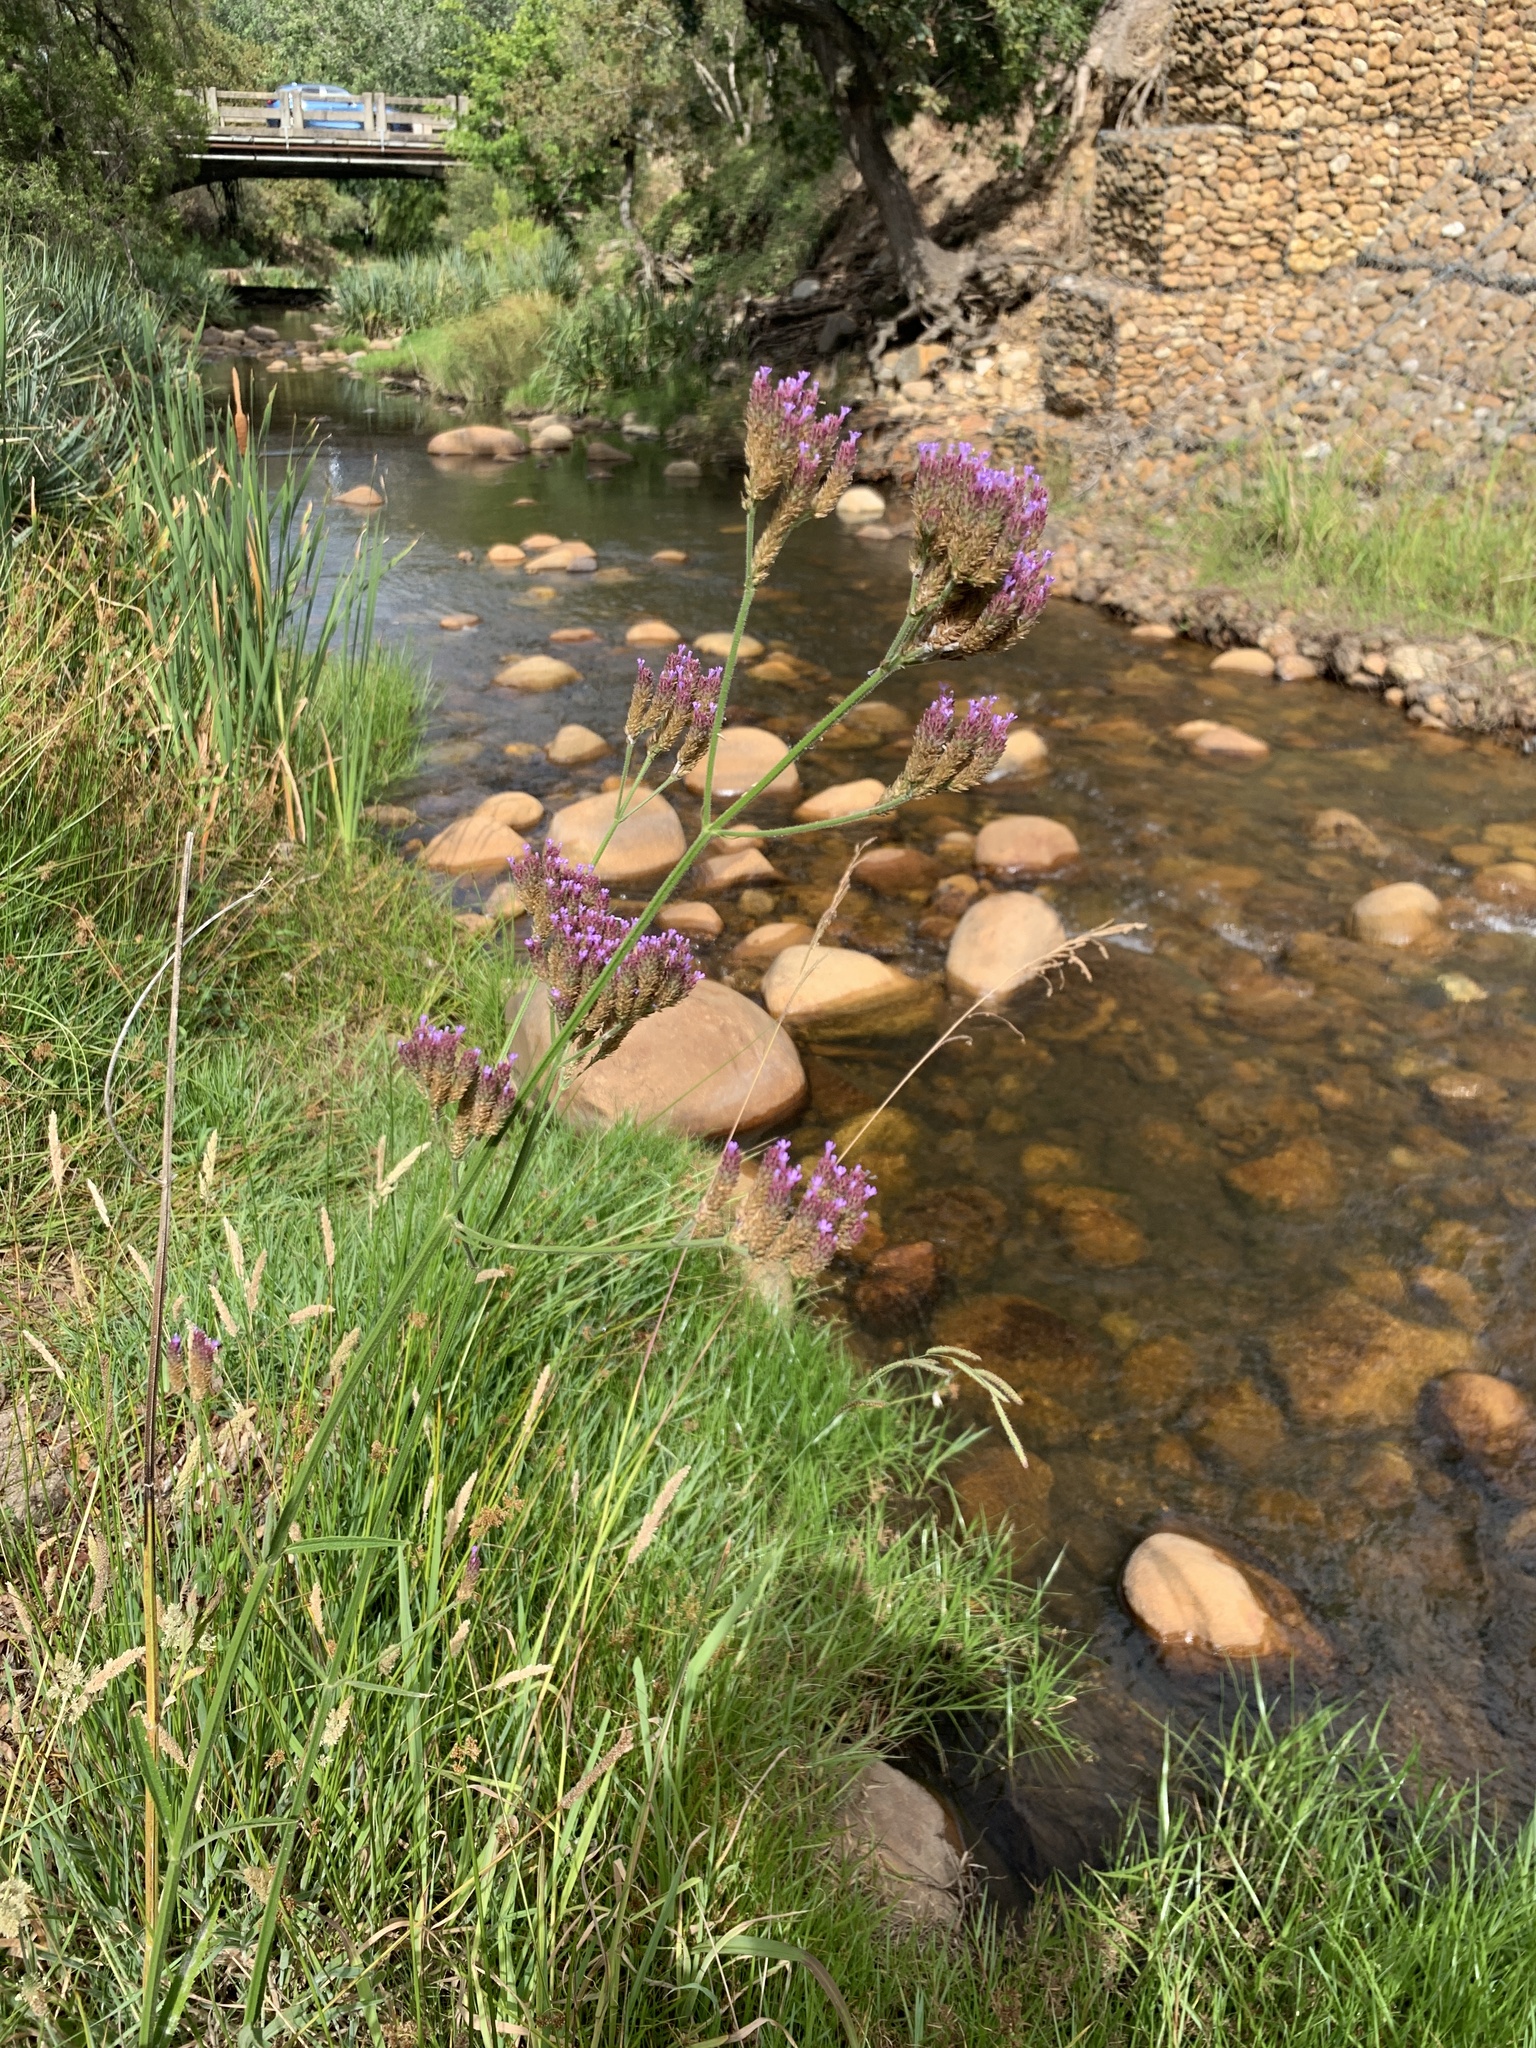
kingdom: Plantae
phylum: Tracheophyta
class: Magnoliopsida
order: Lamiales
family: Verbenaceae
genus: Verbena
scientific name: Verbena bonariensis
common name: Purpletop vervain
